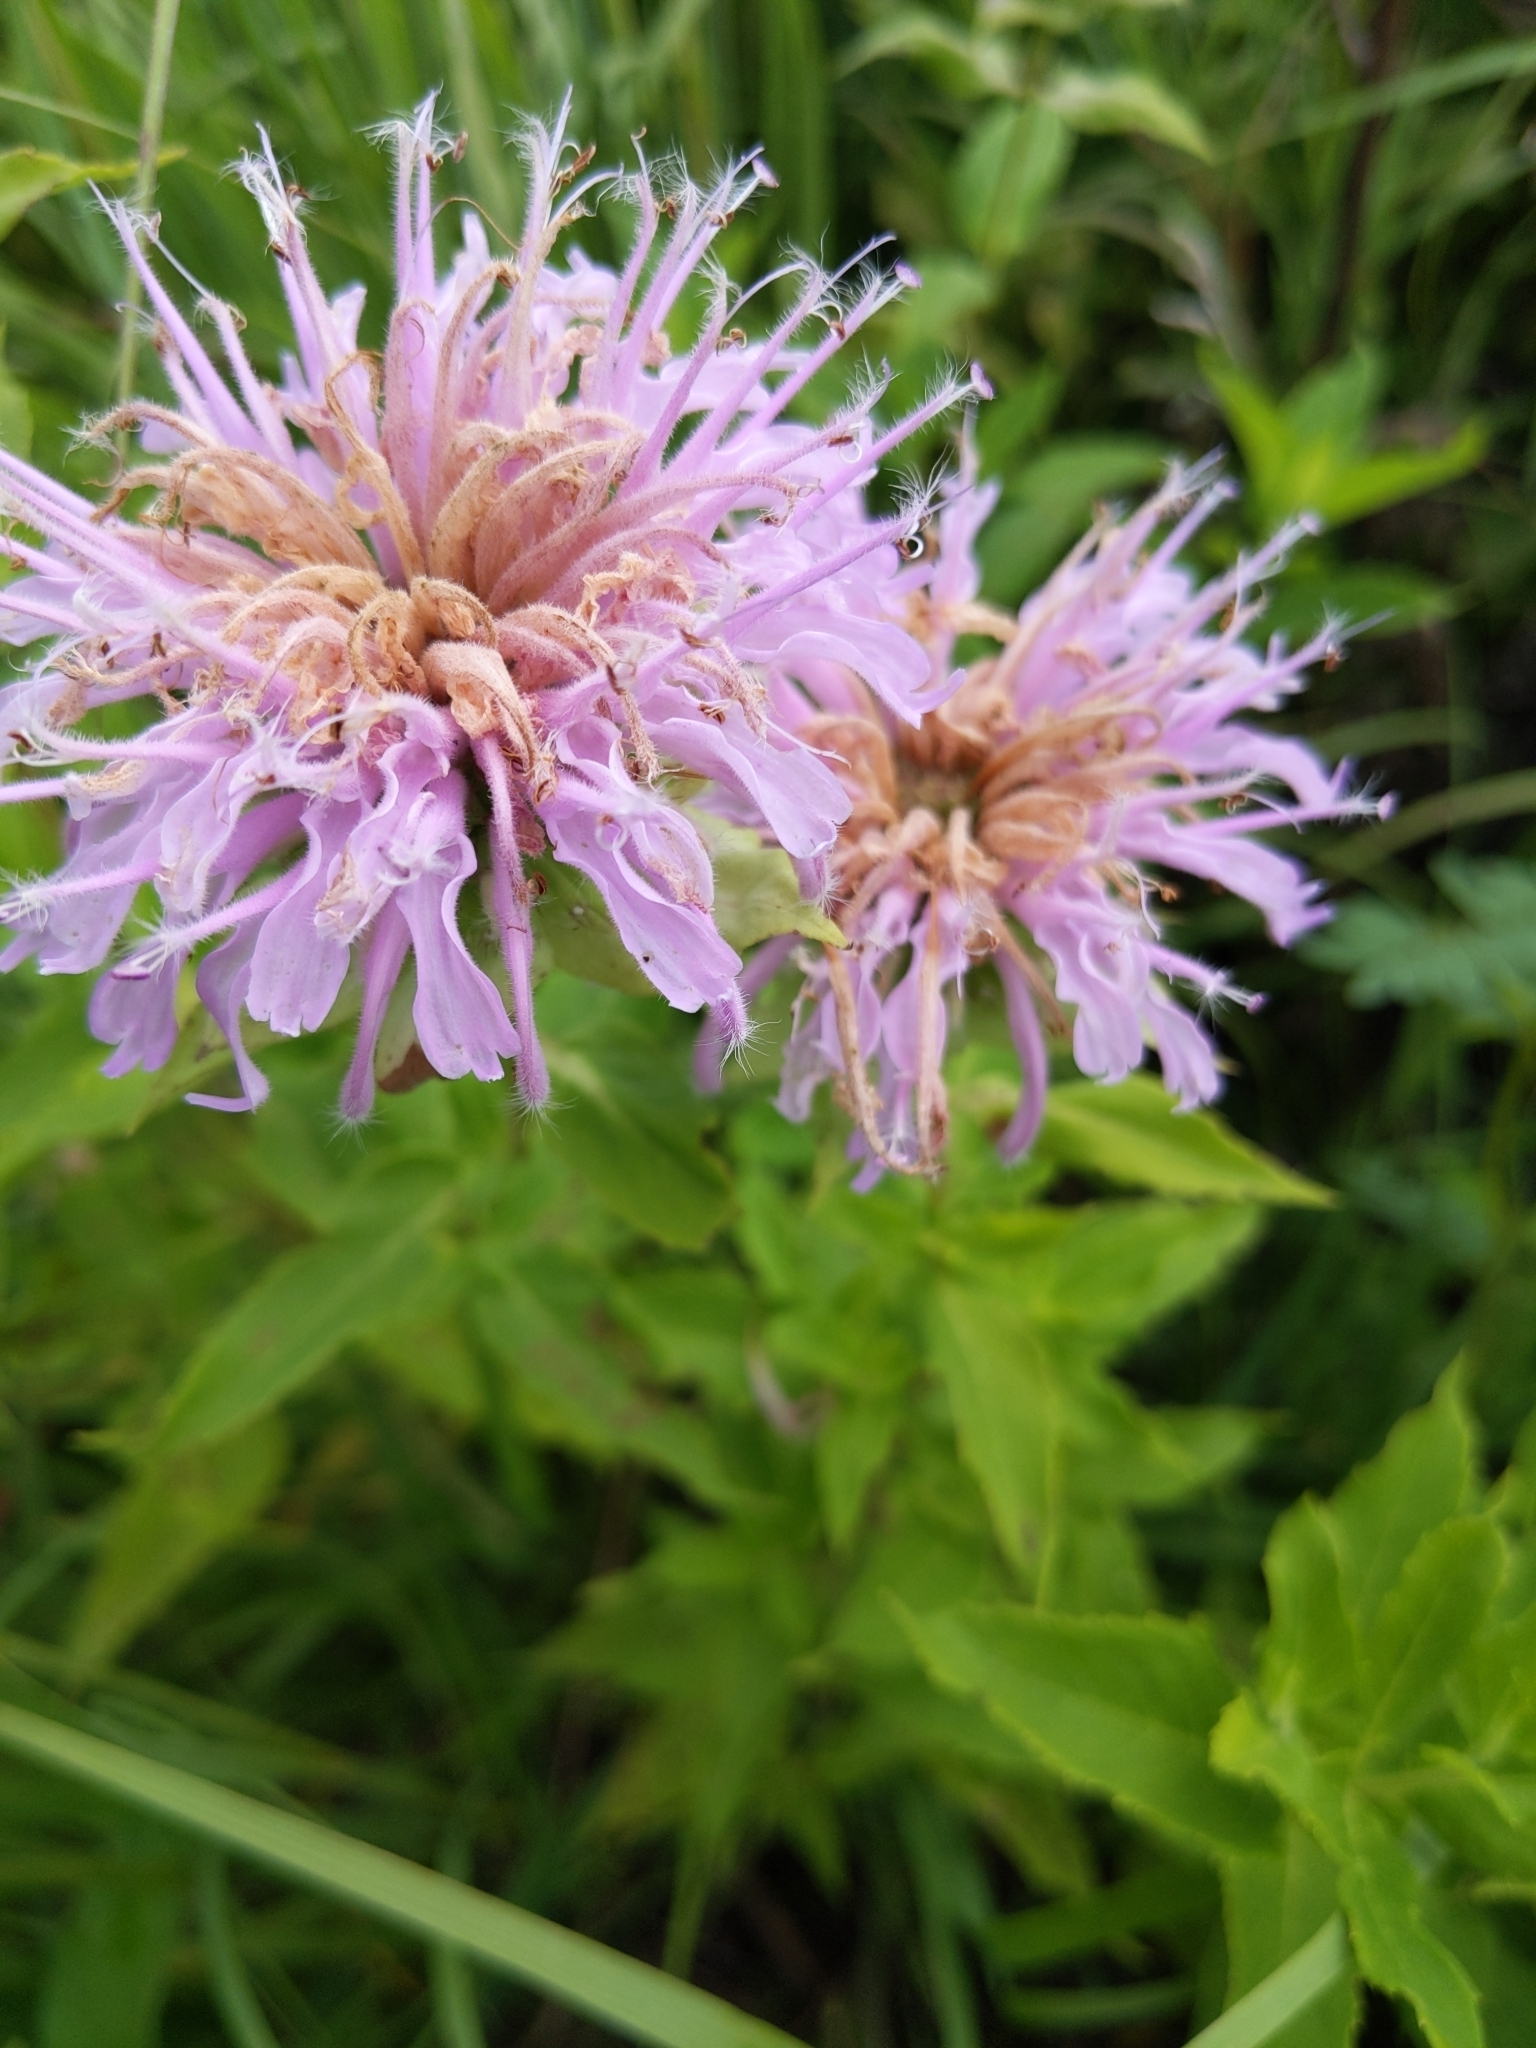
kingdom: Plantae
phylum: Tracheophyta
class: Magnoliopsida
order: Lamiales
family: Lamiaceae
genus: Monarda
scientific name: Monarda fistulosa
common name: Purple beebalm
